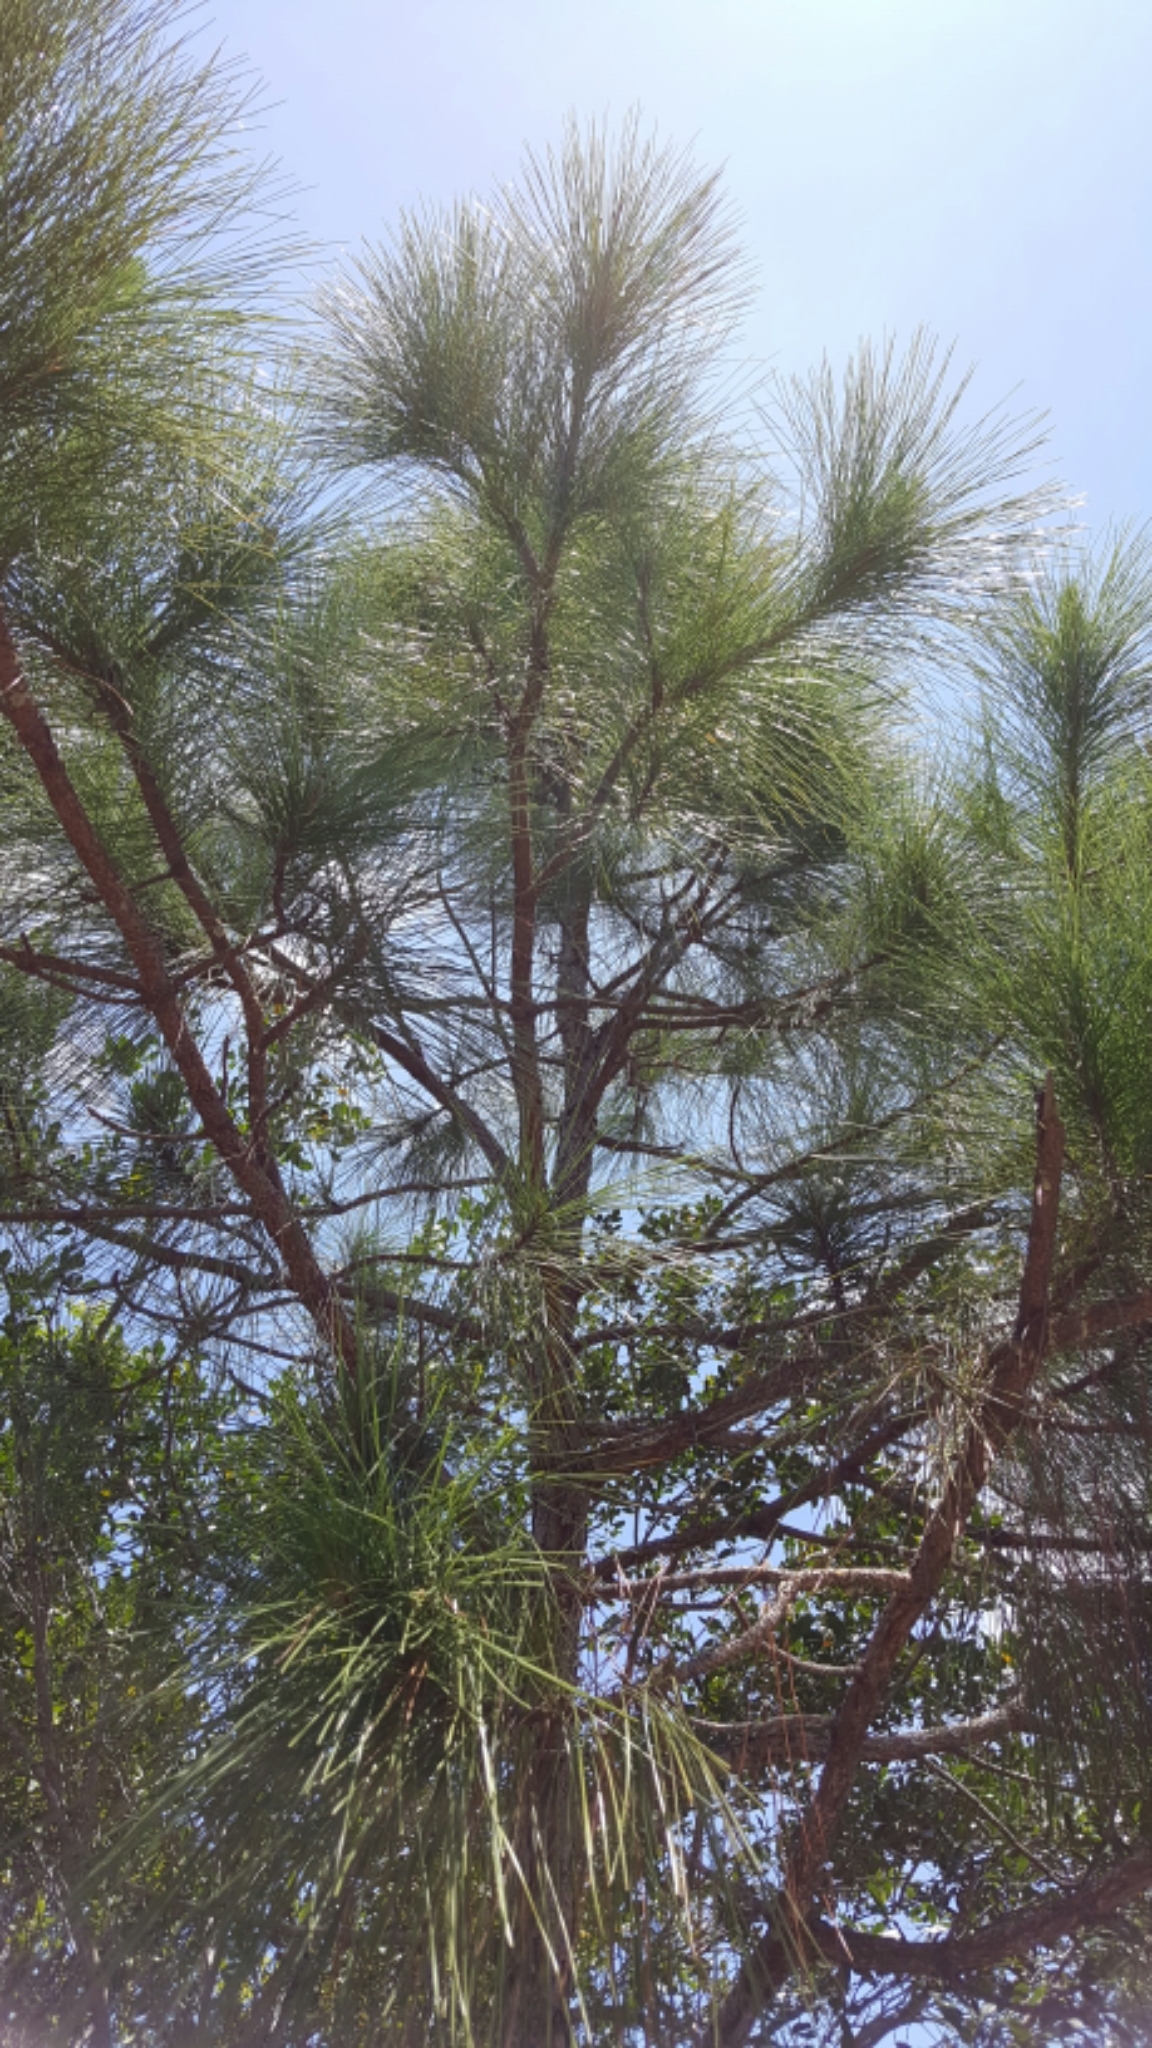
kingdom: Plantae
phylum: Tracheophyta
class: Pinopsida
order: Pinales
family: Pinaceae
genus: Pinus
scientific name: Pinus elliottii
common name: Slash pine
